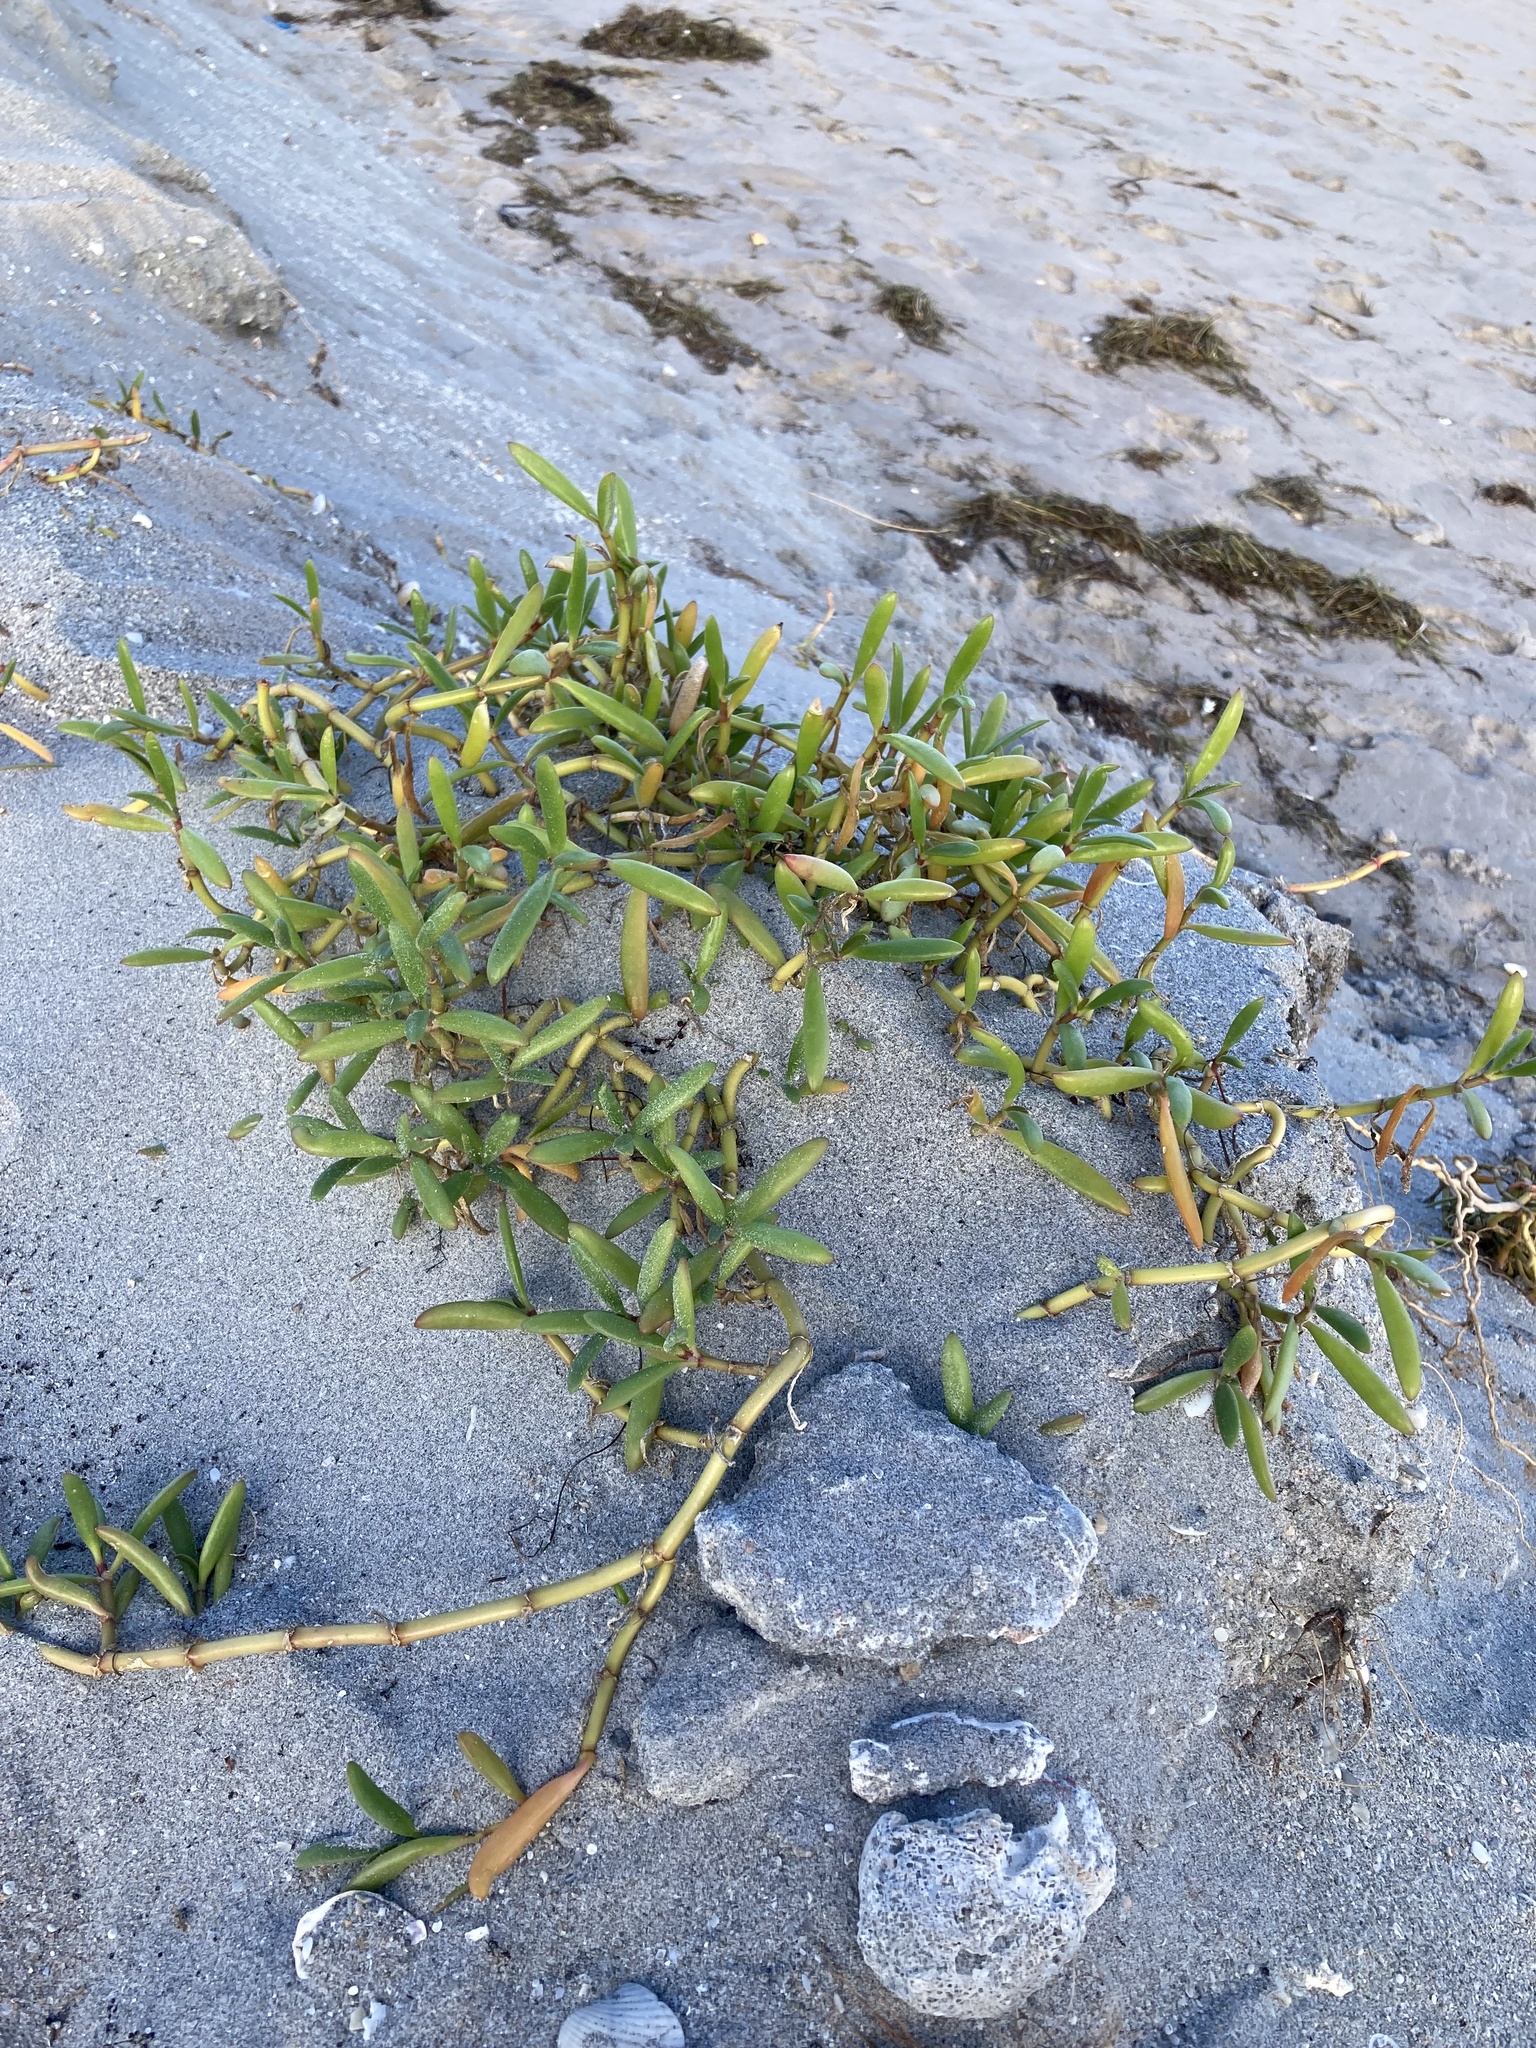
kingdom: Plantae
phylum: Tracheophyta
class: Magnoliopsida
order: Caryophyllales
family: Aizoaceae
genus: Sesuvium
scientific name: Sesuvium portulacastrum
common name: Sea-purslane
